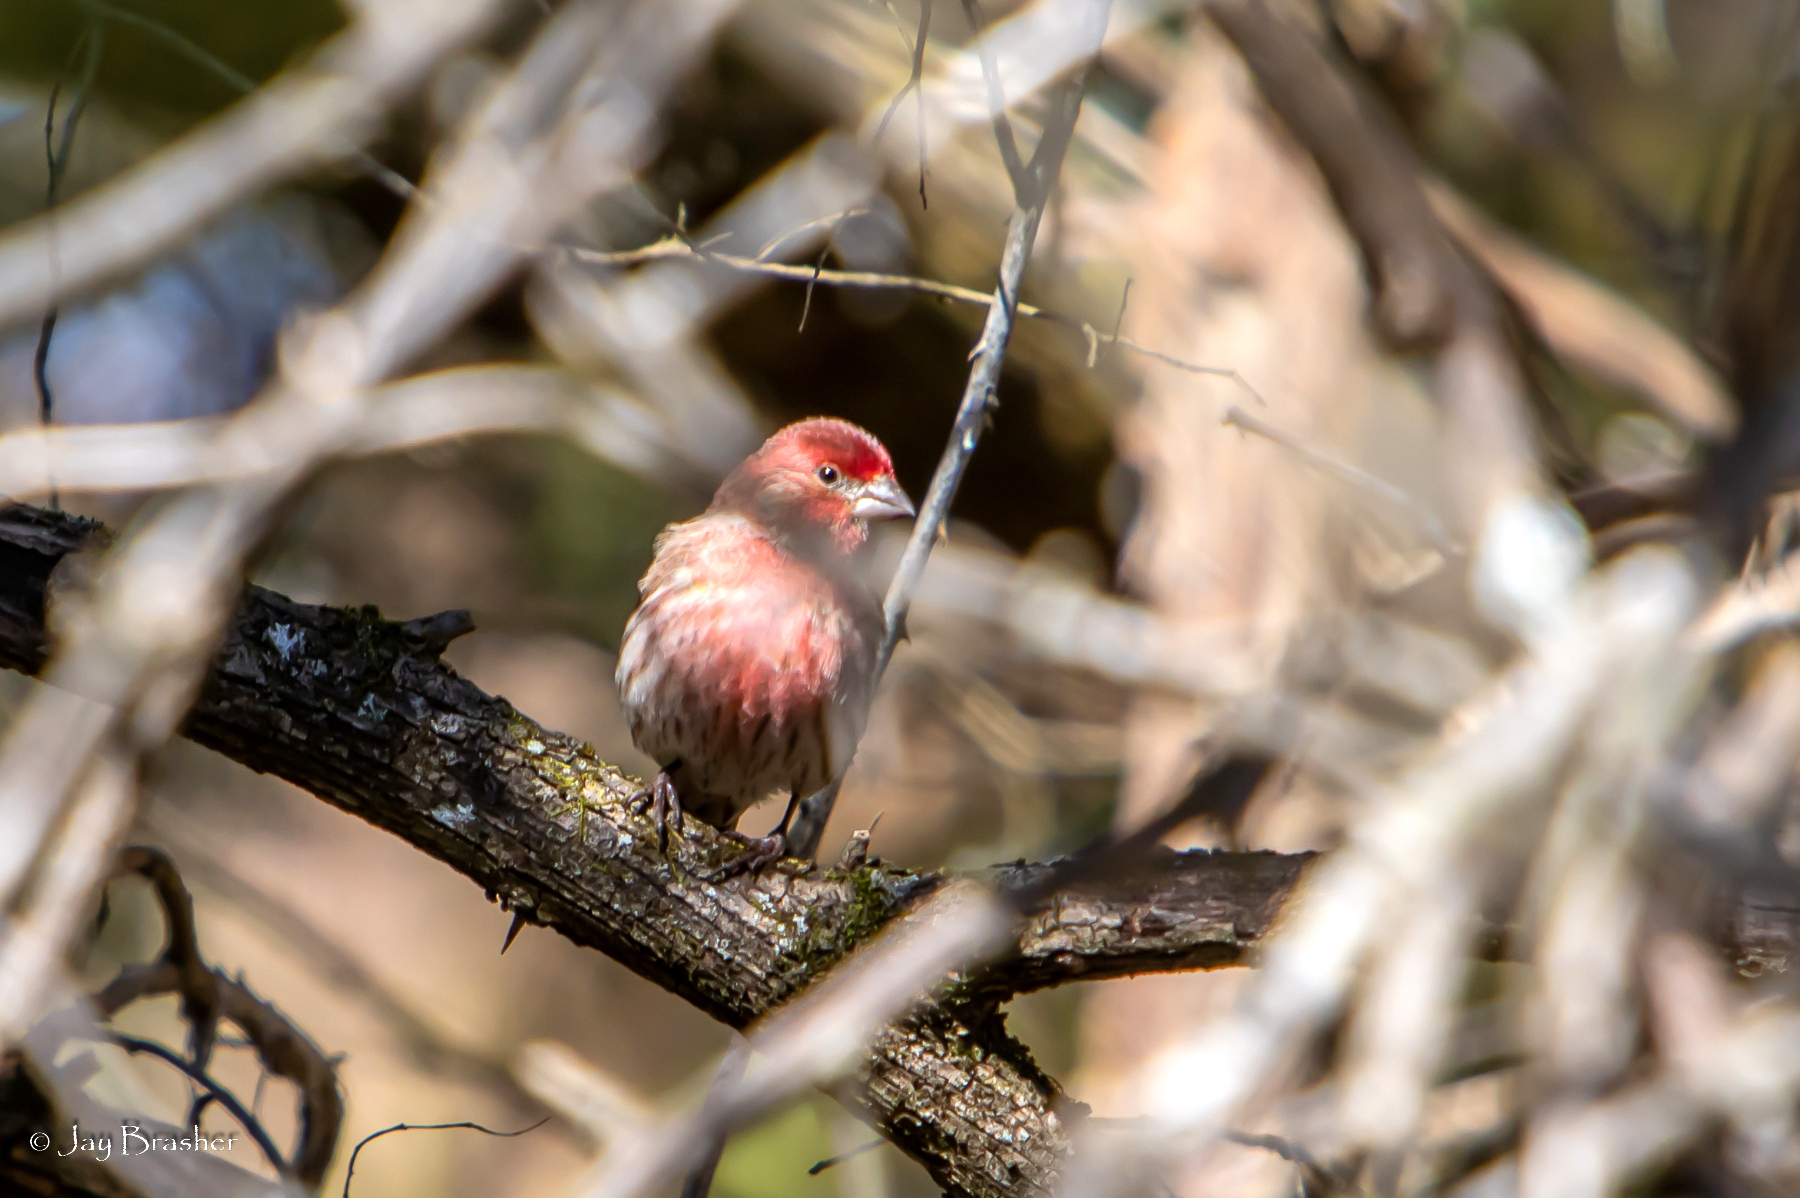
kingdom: Animalia
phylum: Chordata
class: Aves
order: Passeriformes
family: Fringillidae
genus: Haemorhous
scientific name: Haemorhous mexicanus
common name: House finch
